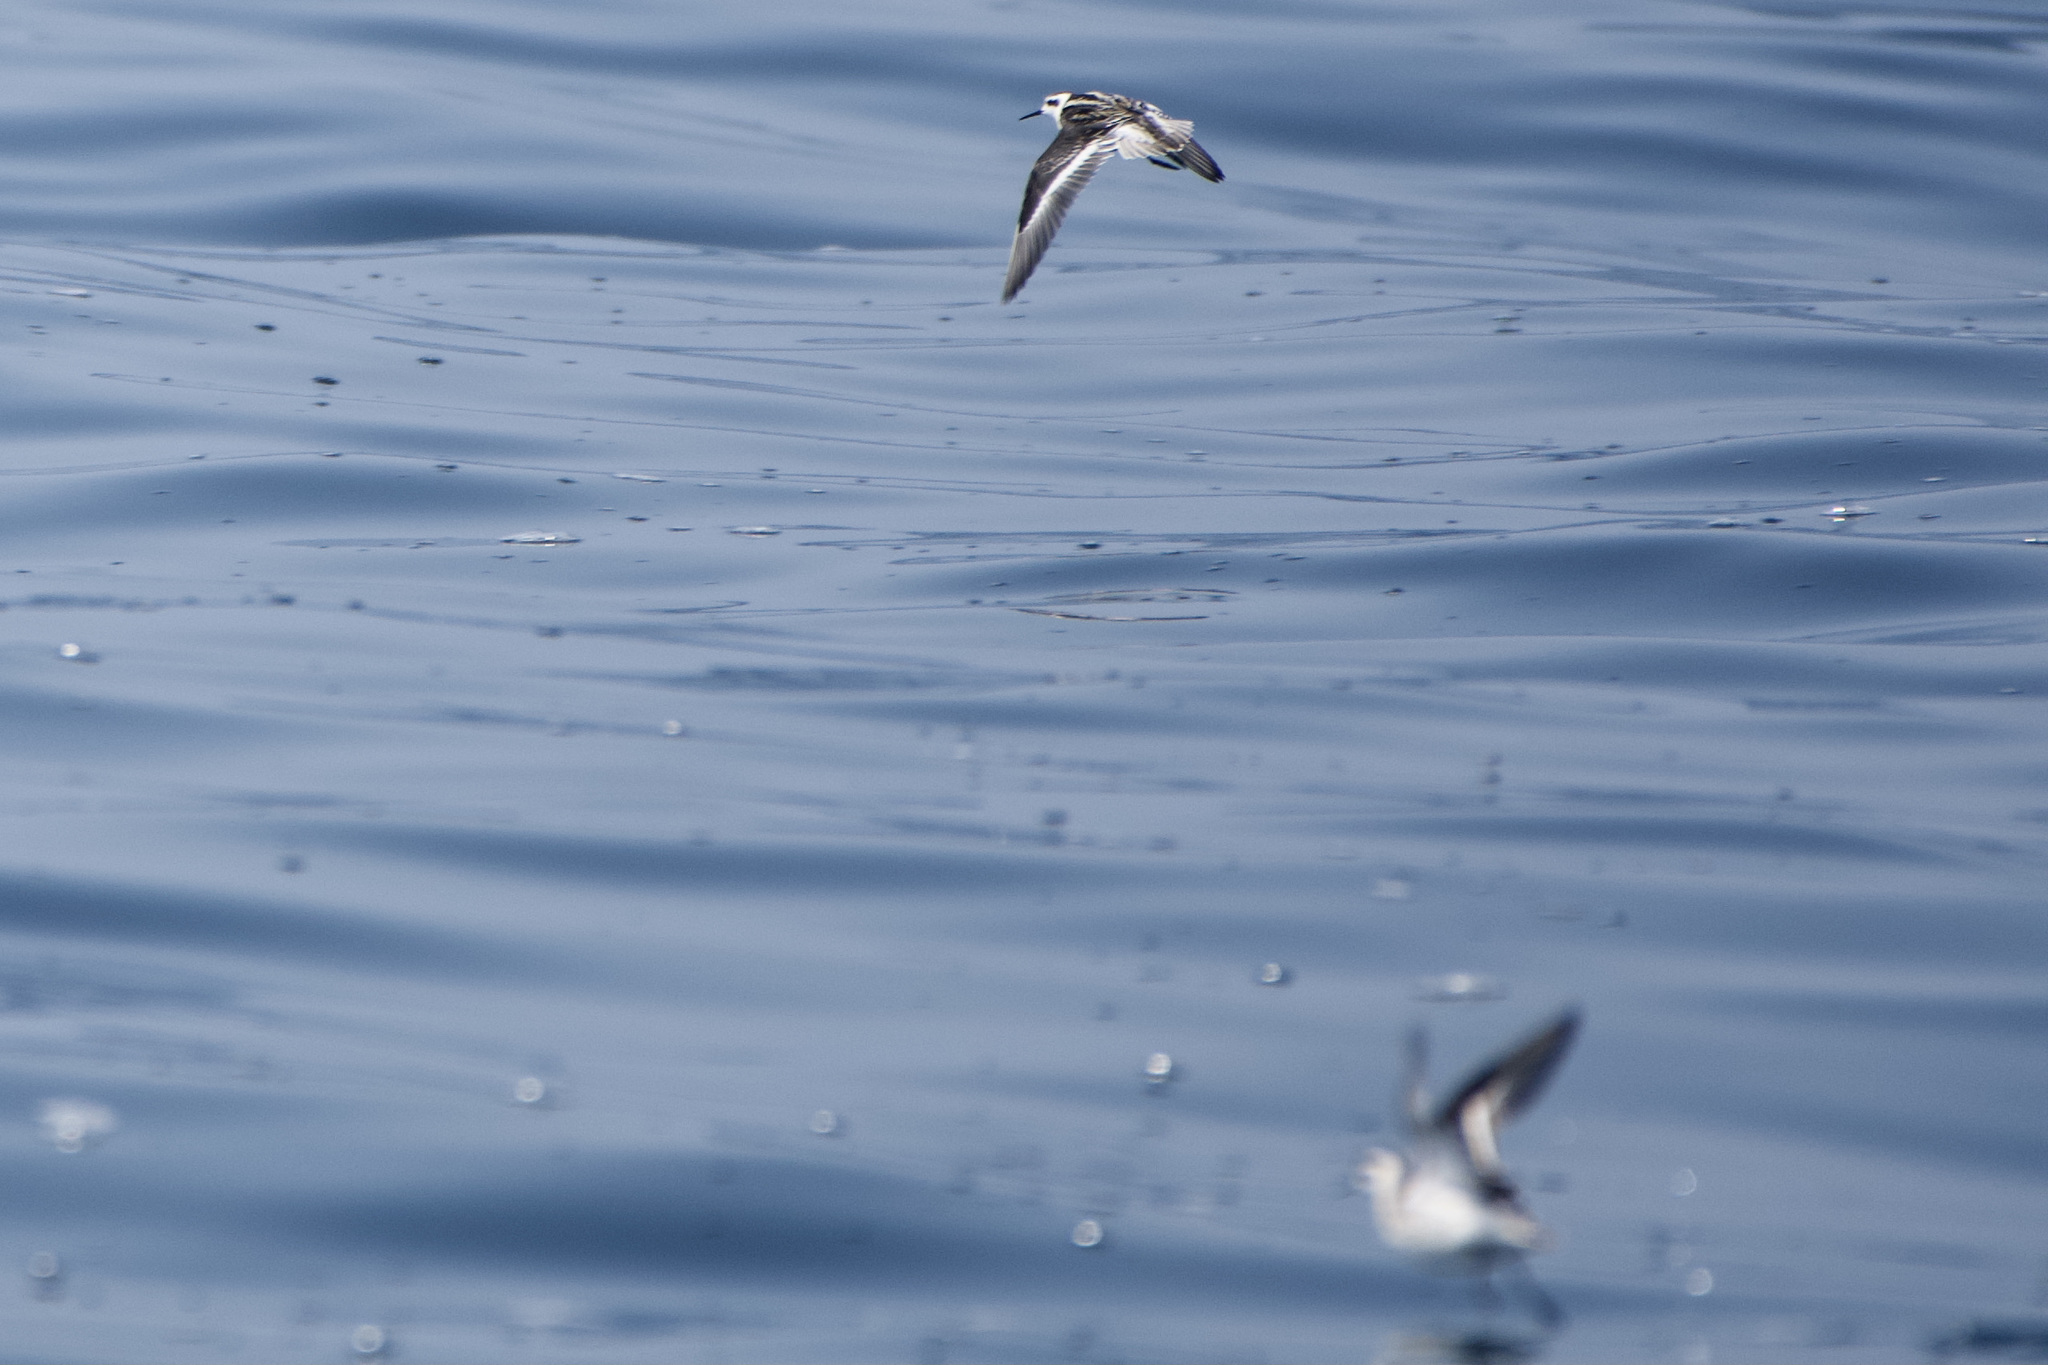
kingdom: Animalia
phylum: Chordata
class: Aves
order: Charadriiformes
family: Scolopacidae
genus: Phalaropus
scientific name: Phalaropus lobatus
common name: Red-necked phalarope
